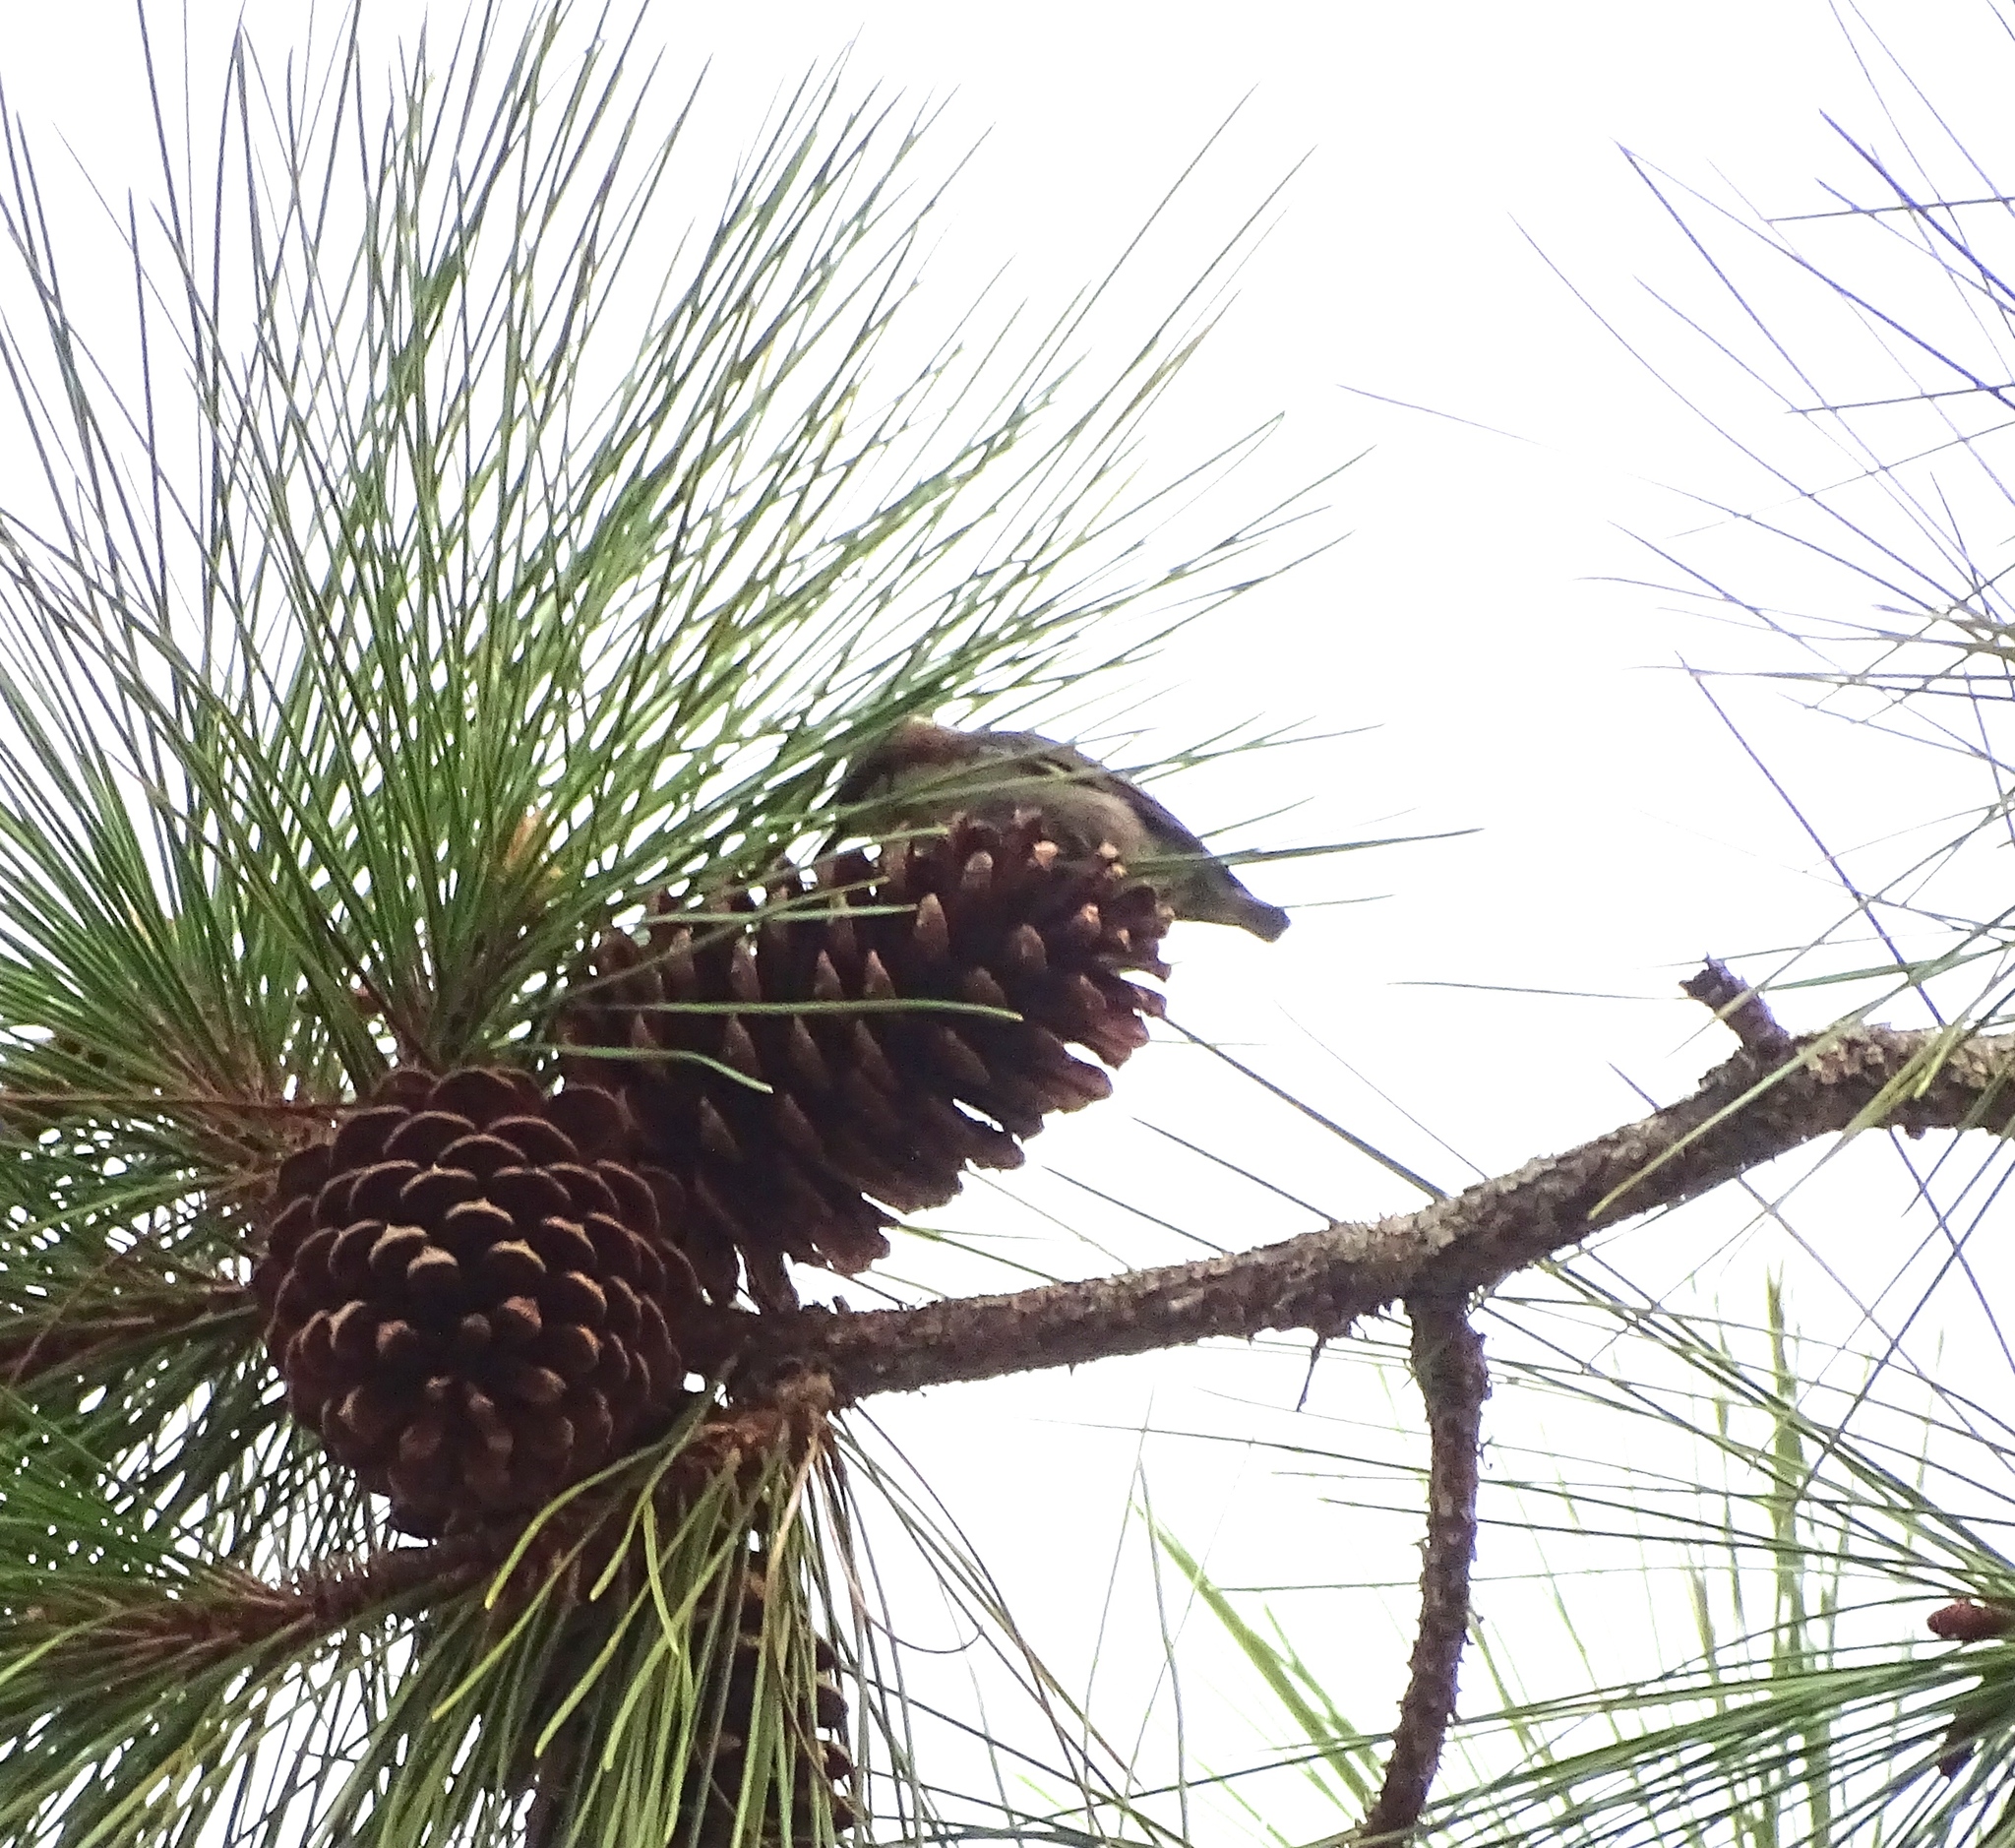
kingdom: Animalia
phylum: Chordata
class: Aves
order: Passeriformes
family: Sittidae
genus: Sitta
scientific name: Sitta pusilla
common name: Brown-headed nuthatch
